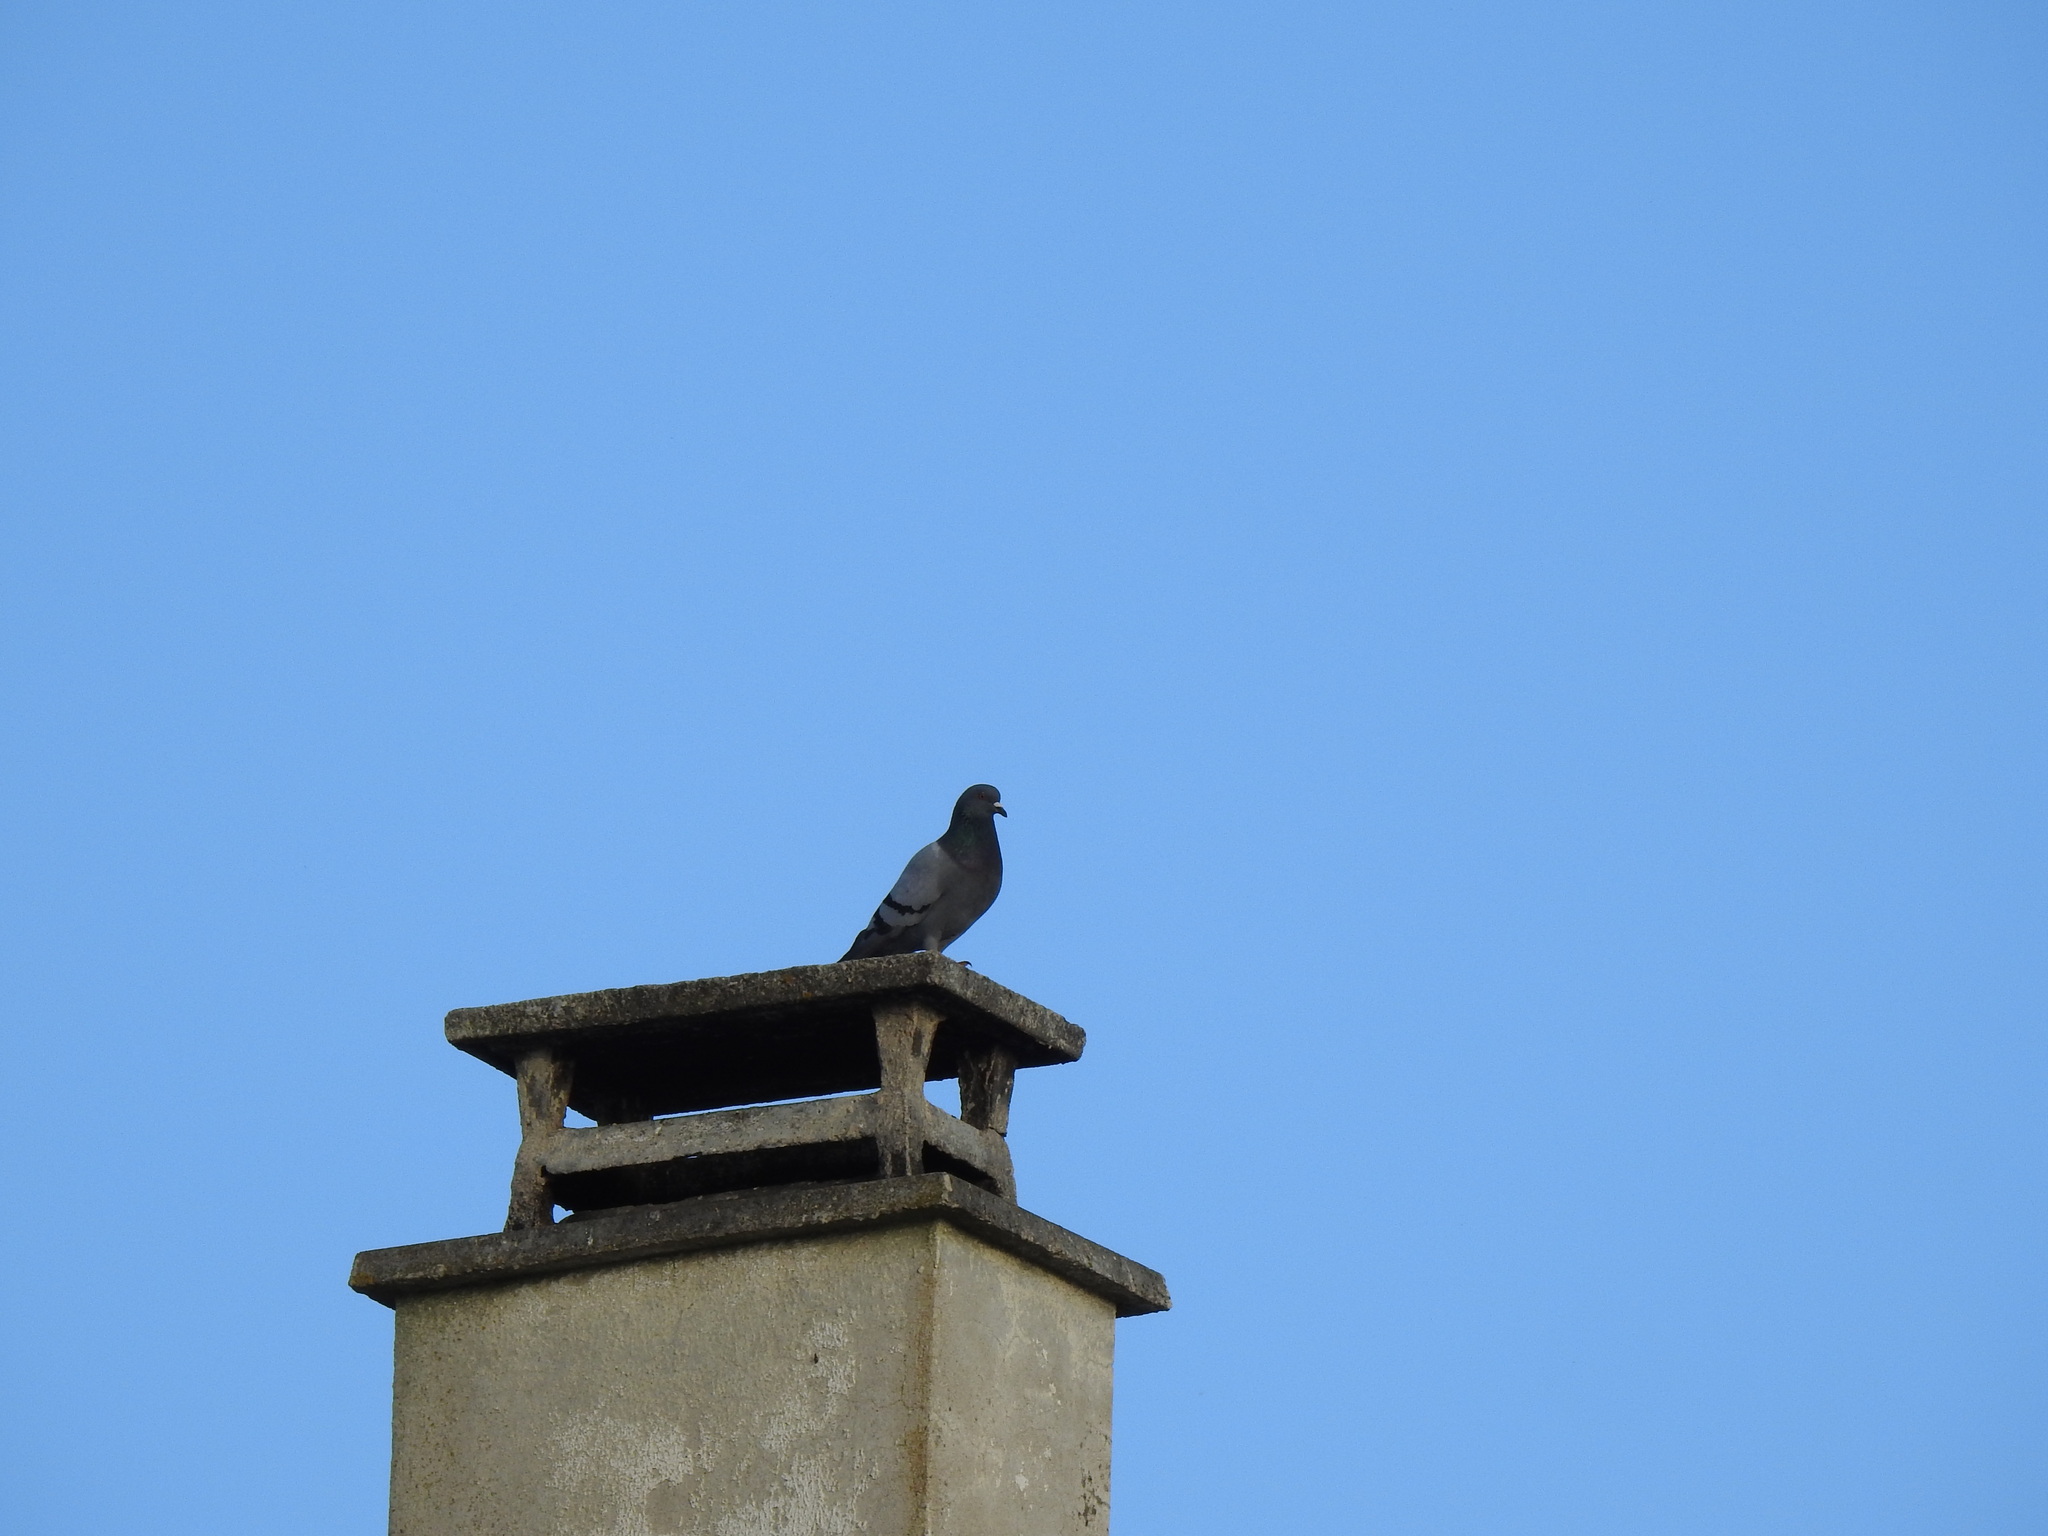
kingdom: Animalia
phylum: Chordata
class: Aves
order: Columbiformes
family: Columbidae
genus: Columba
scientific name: Columba livia
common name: Rock pigeon
